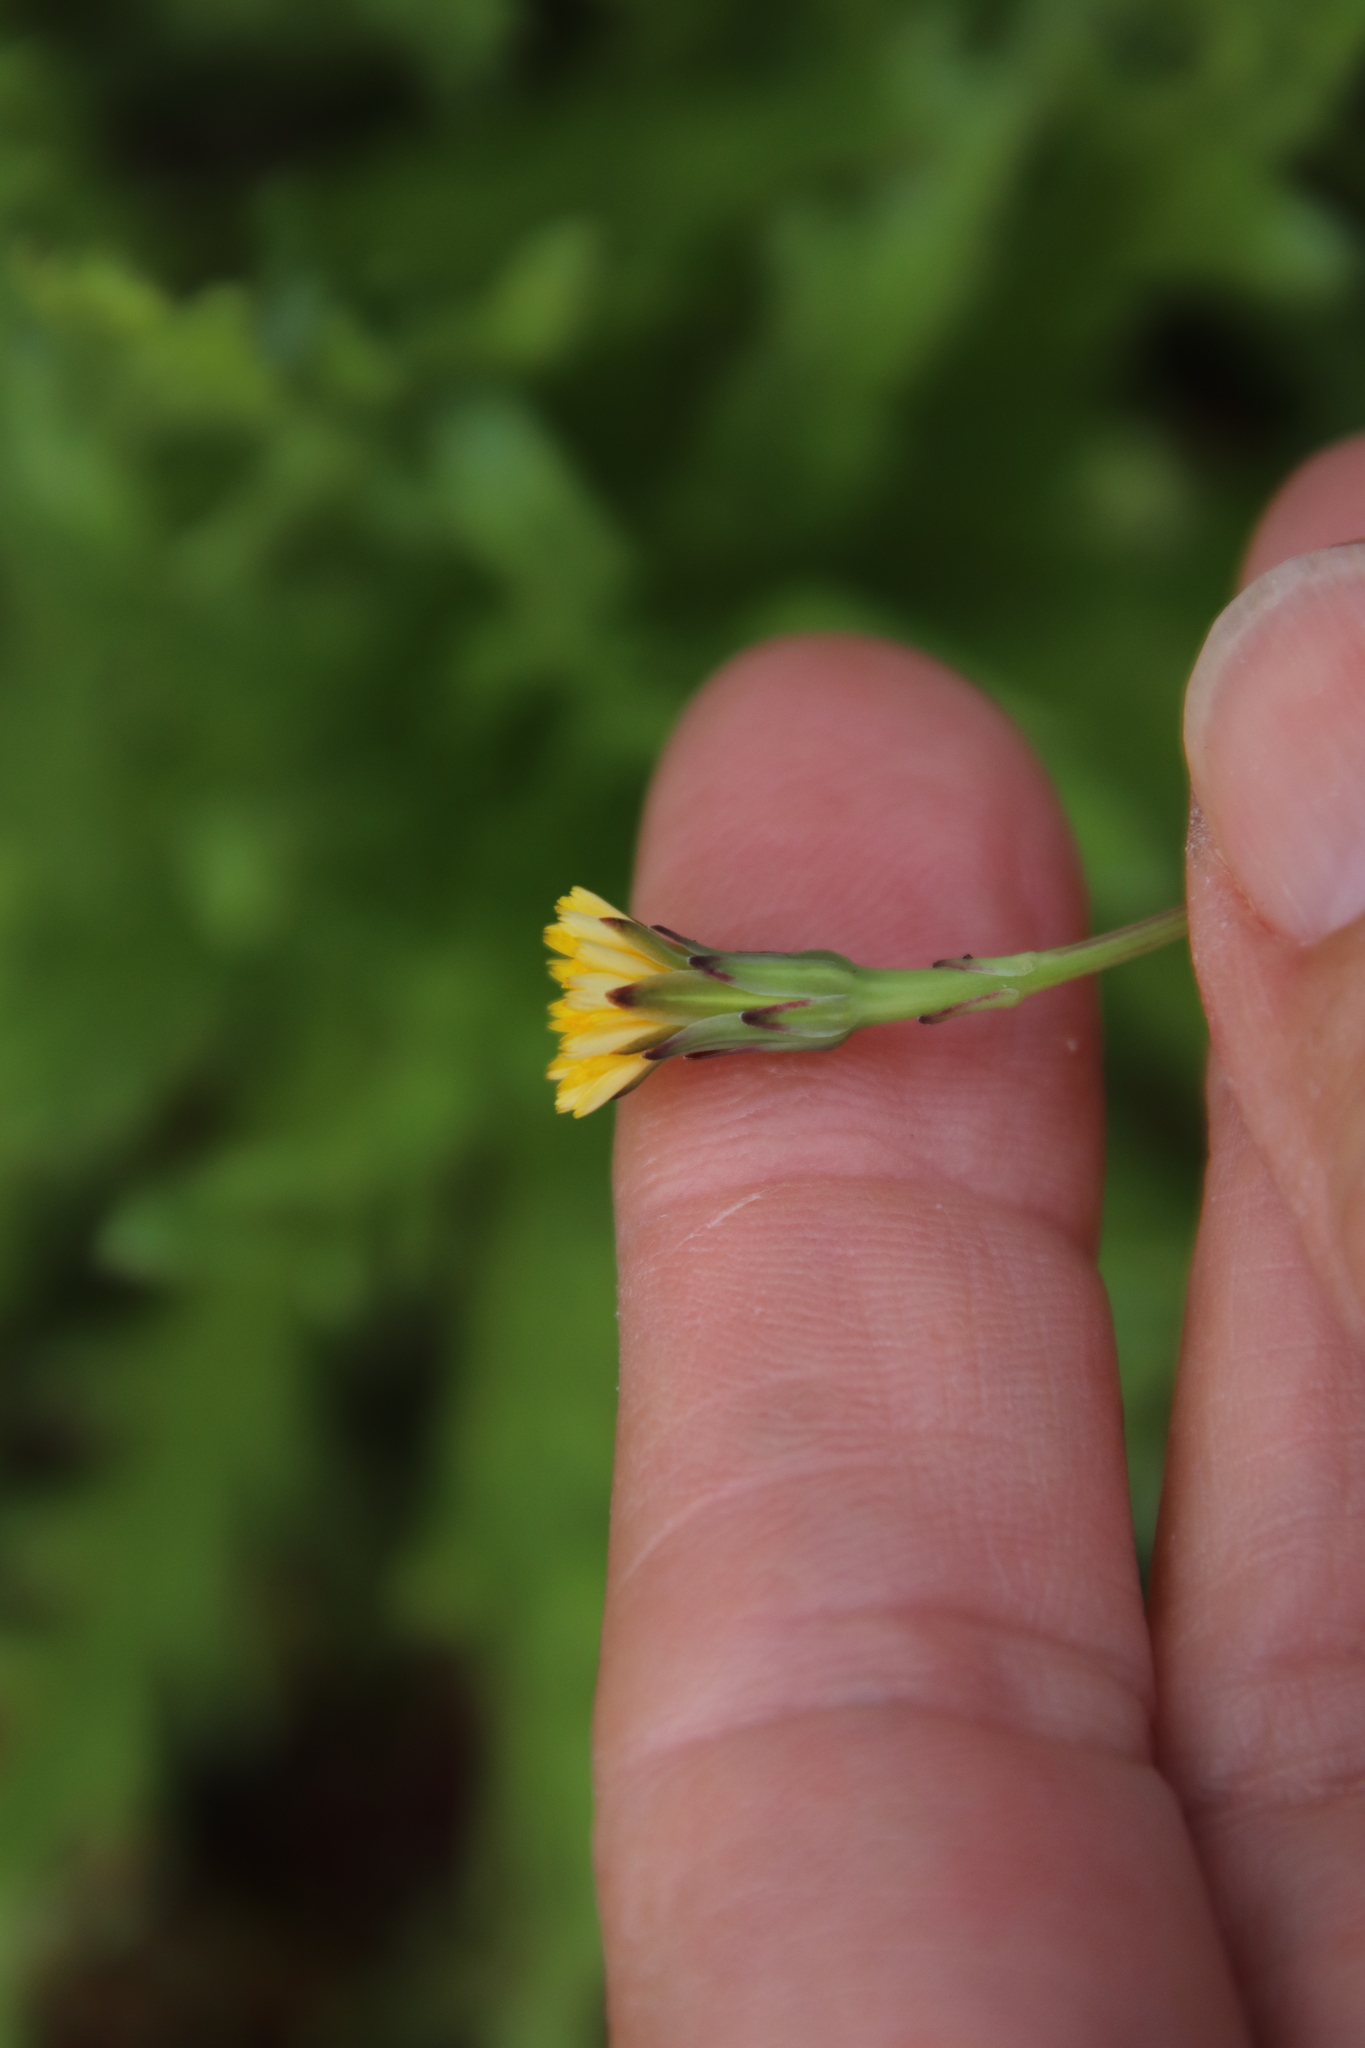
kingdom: Plantae
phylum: Tracheophyta
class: Magnoliopsida
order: Asterales
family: Asteraceae
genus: Hypochaeris
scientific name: Hypochaeris glabra
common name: Smooth catsear
